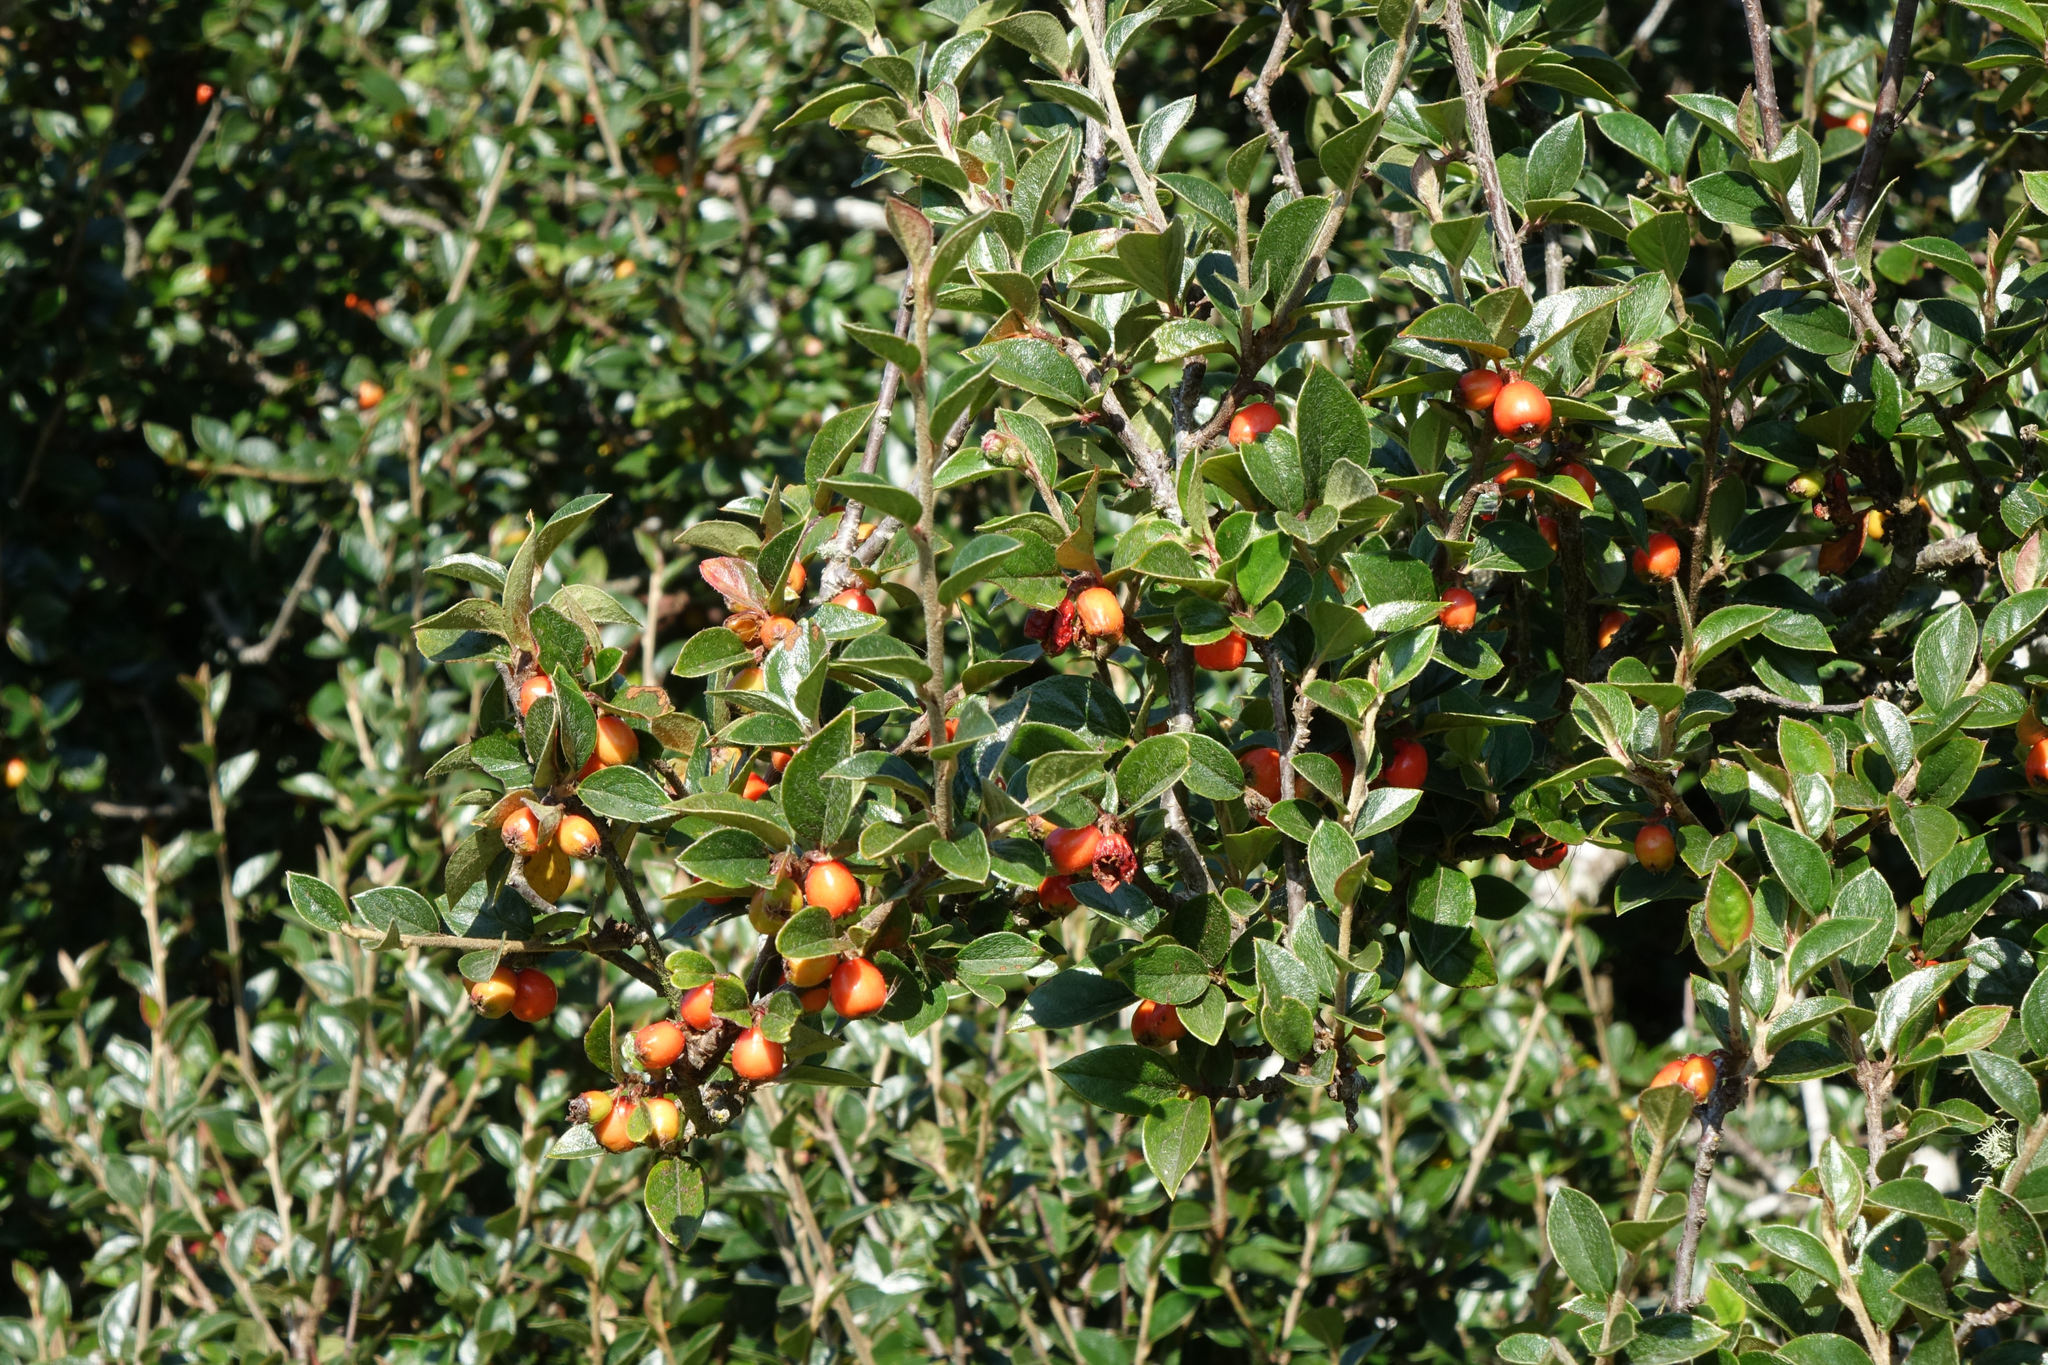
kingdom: Plantae
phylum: Tracheophyta
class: Magnoliopsida
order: Rosales
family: Rosaceae
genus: Cotoneaster
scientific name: Cotoneaster simonsii
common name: Himalayan cotoneaster
